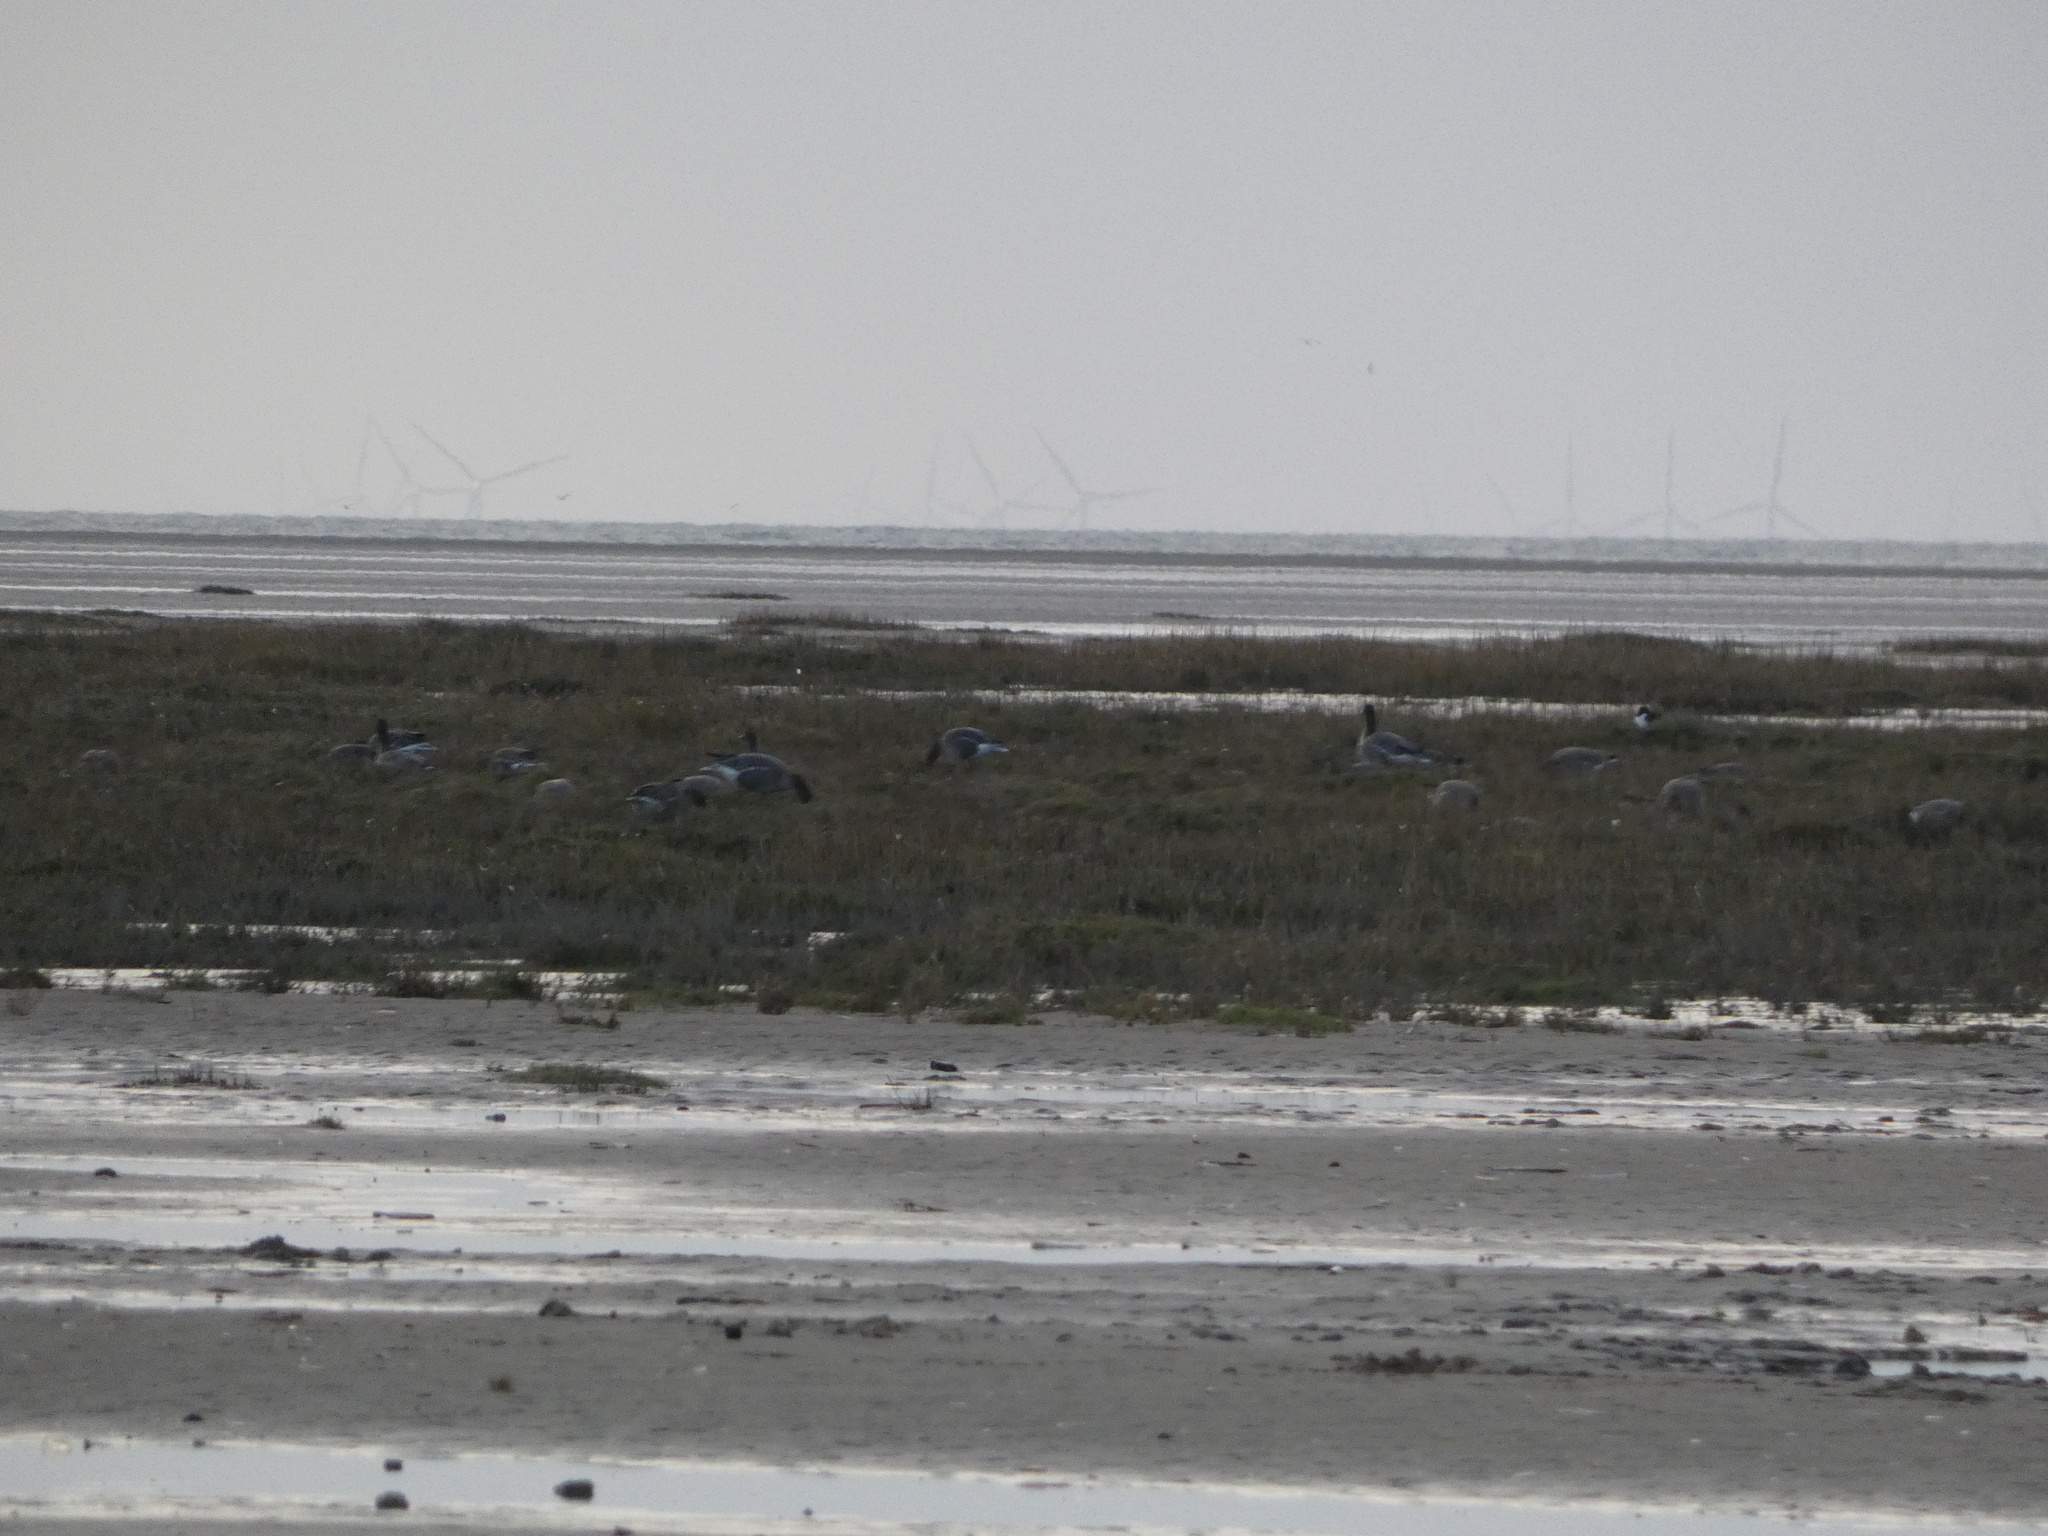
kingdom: Animalia
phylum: Chordata
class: Aves
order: Anseriformes
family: Anatidae
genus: Anser
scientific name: Anser brachyrhynchus
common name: Pink-footed goose
